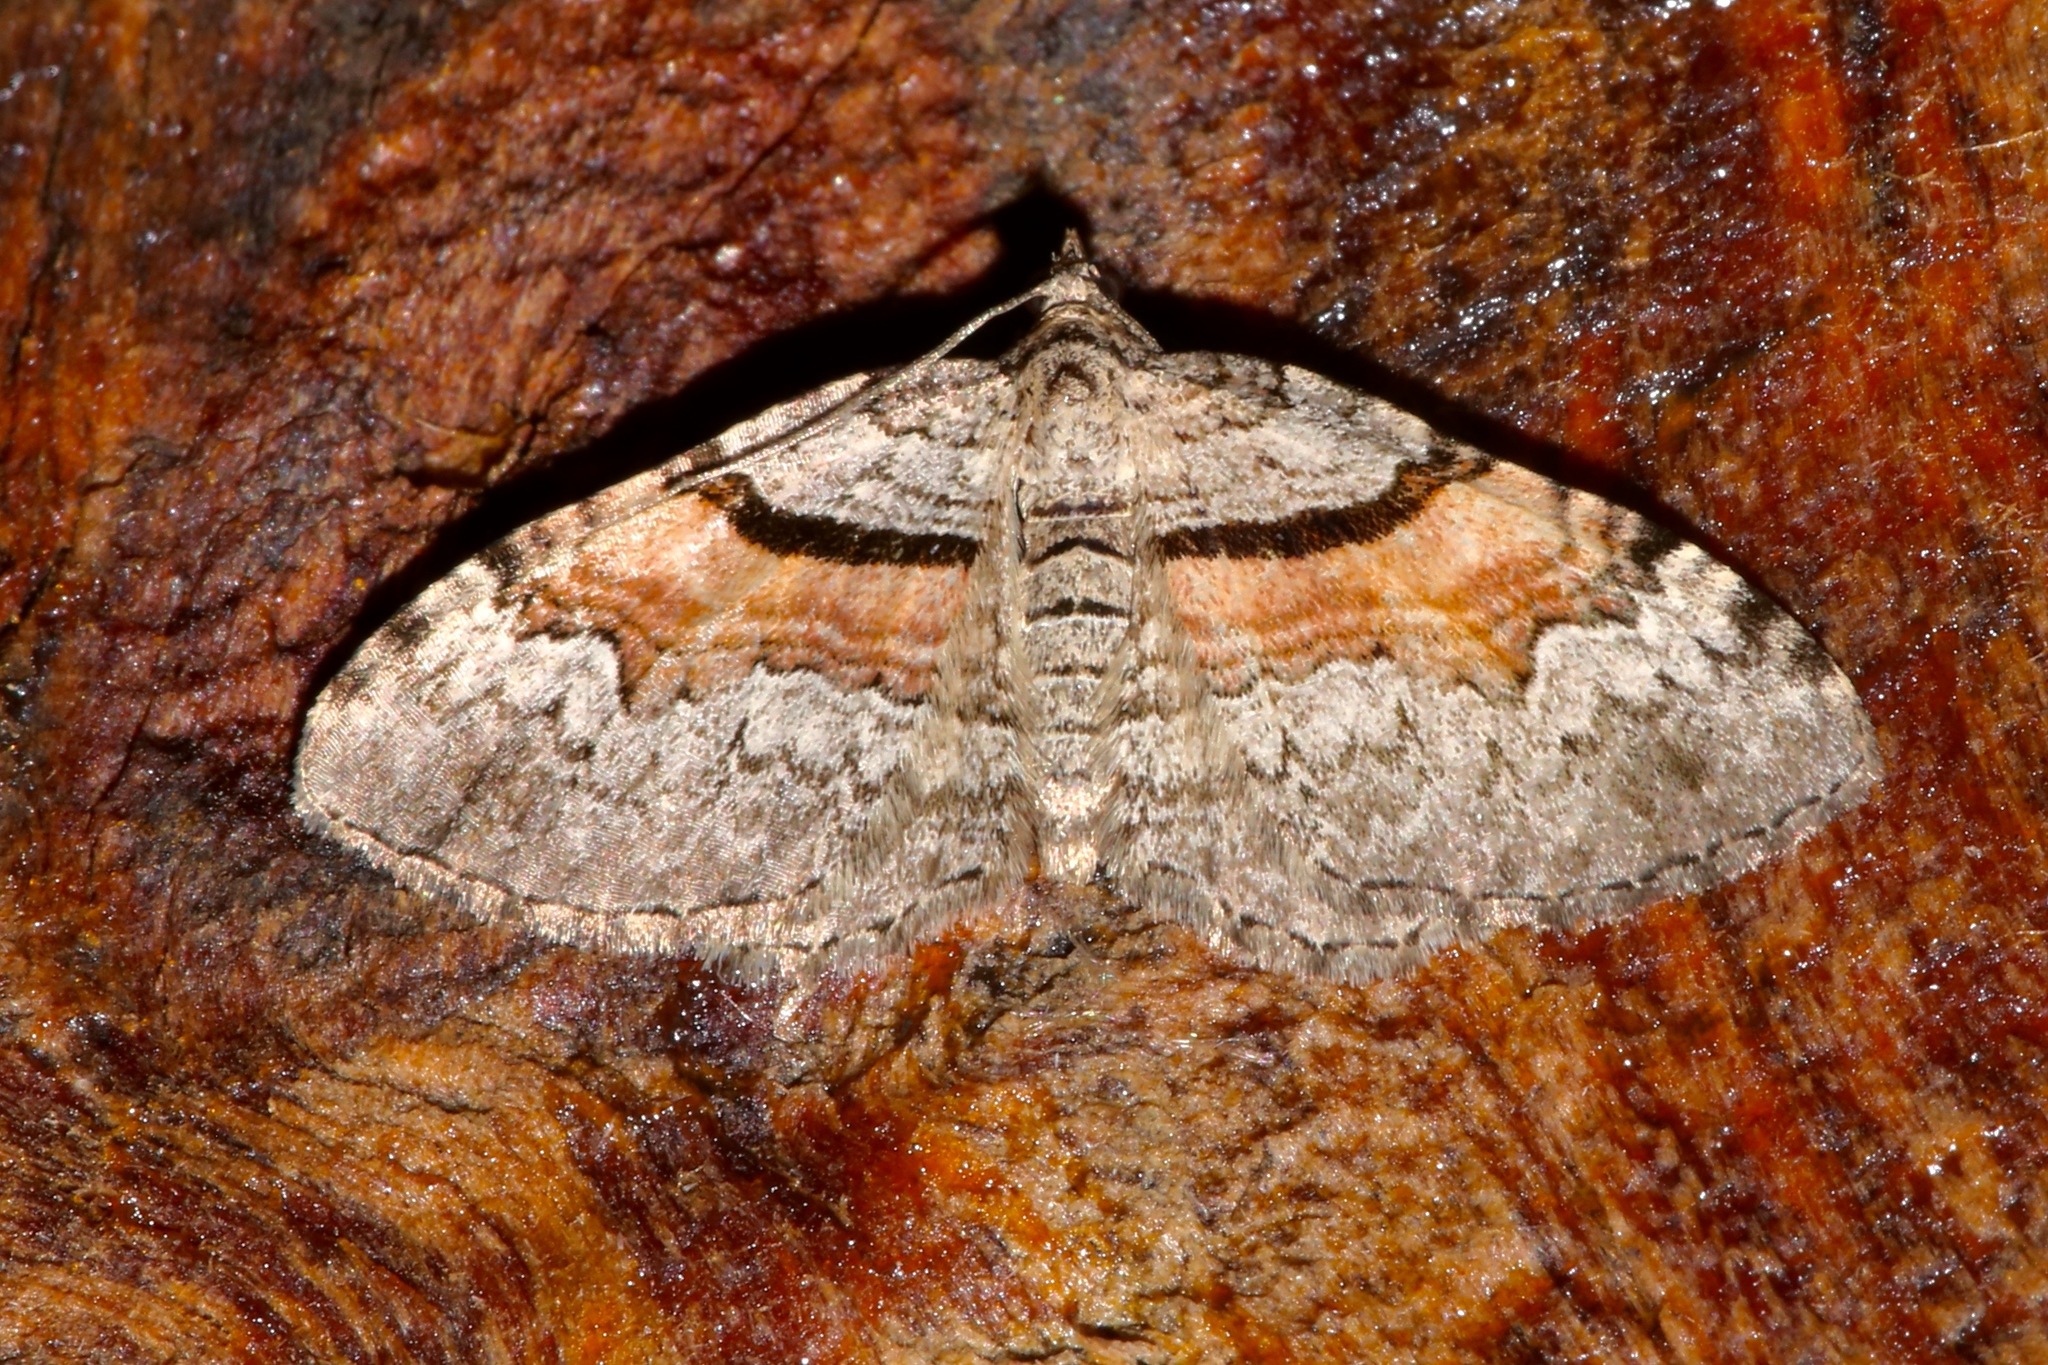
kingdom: Animalia
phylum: Arthropoda
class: Insecta
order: Lepidoptera
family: Geometridae
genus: Xanthorhoe
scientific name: Xanthorhoe packardata
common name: Packard's carpet
